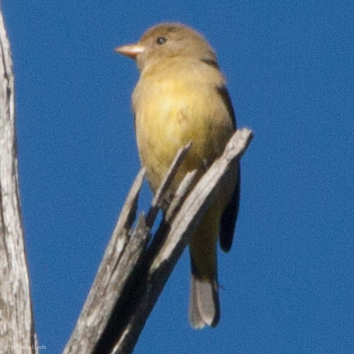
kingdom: Animalia
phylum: Chordata
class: Aves
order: Passeriformes
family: Cardinalidae
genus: Piranga
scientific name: Piranga ludoviciana
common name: Western tanager
